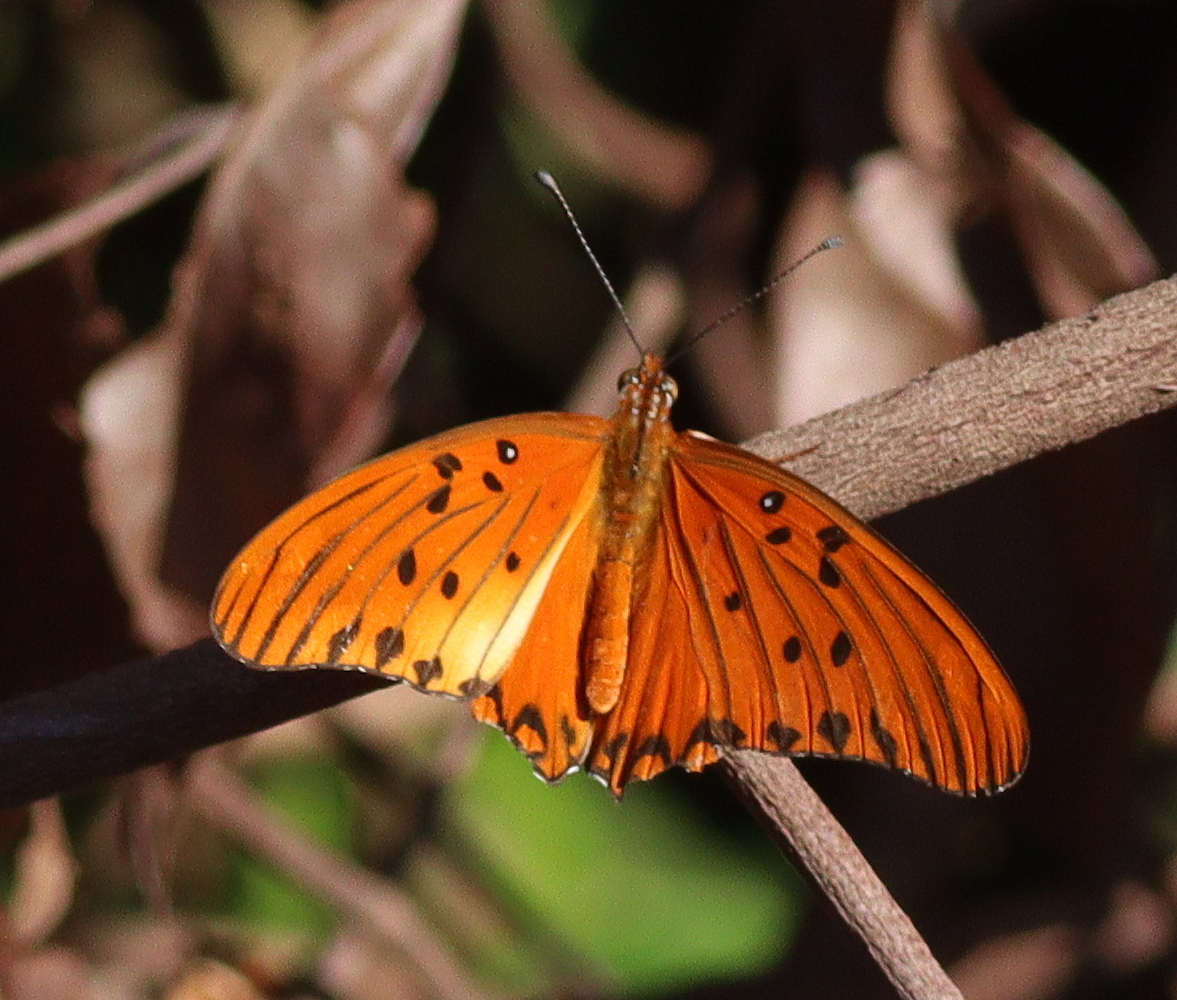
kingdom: Animalia
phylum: Arthropoda
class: Insecta
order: Lepidoptera
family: Nymphalidae
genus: Dione
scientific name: Dione vanillae
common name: Gulf fritillary
